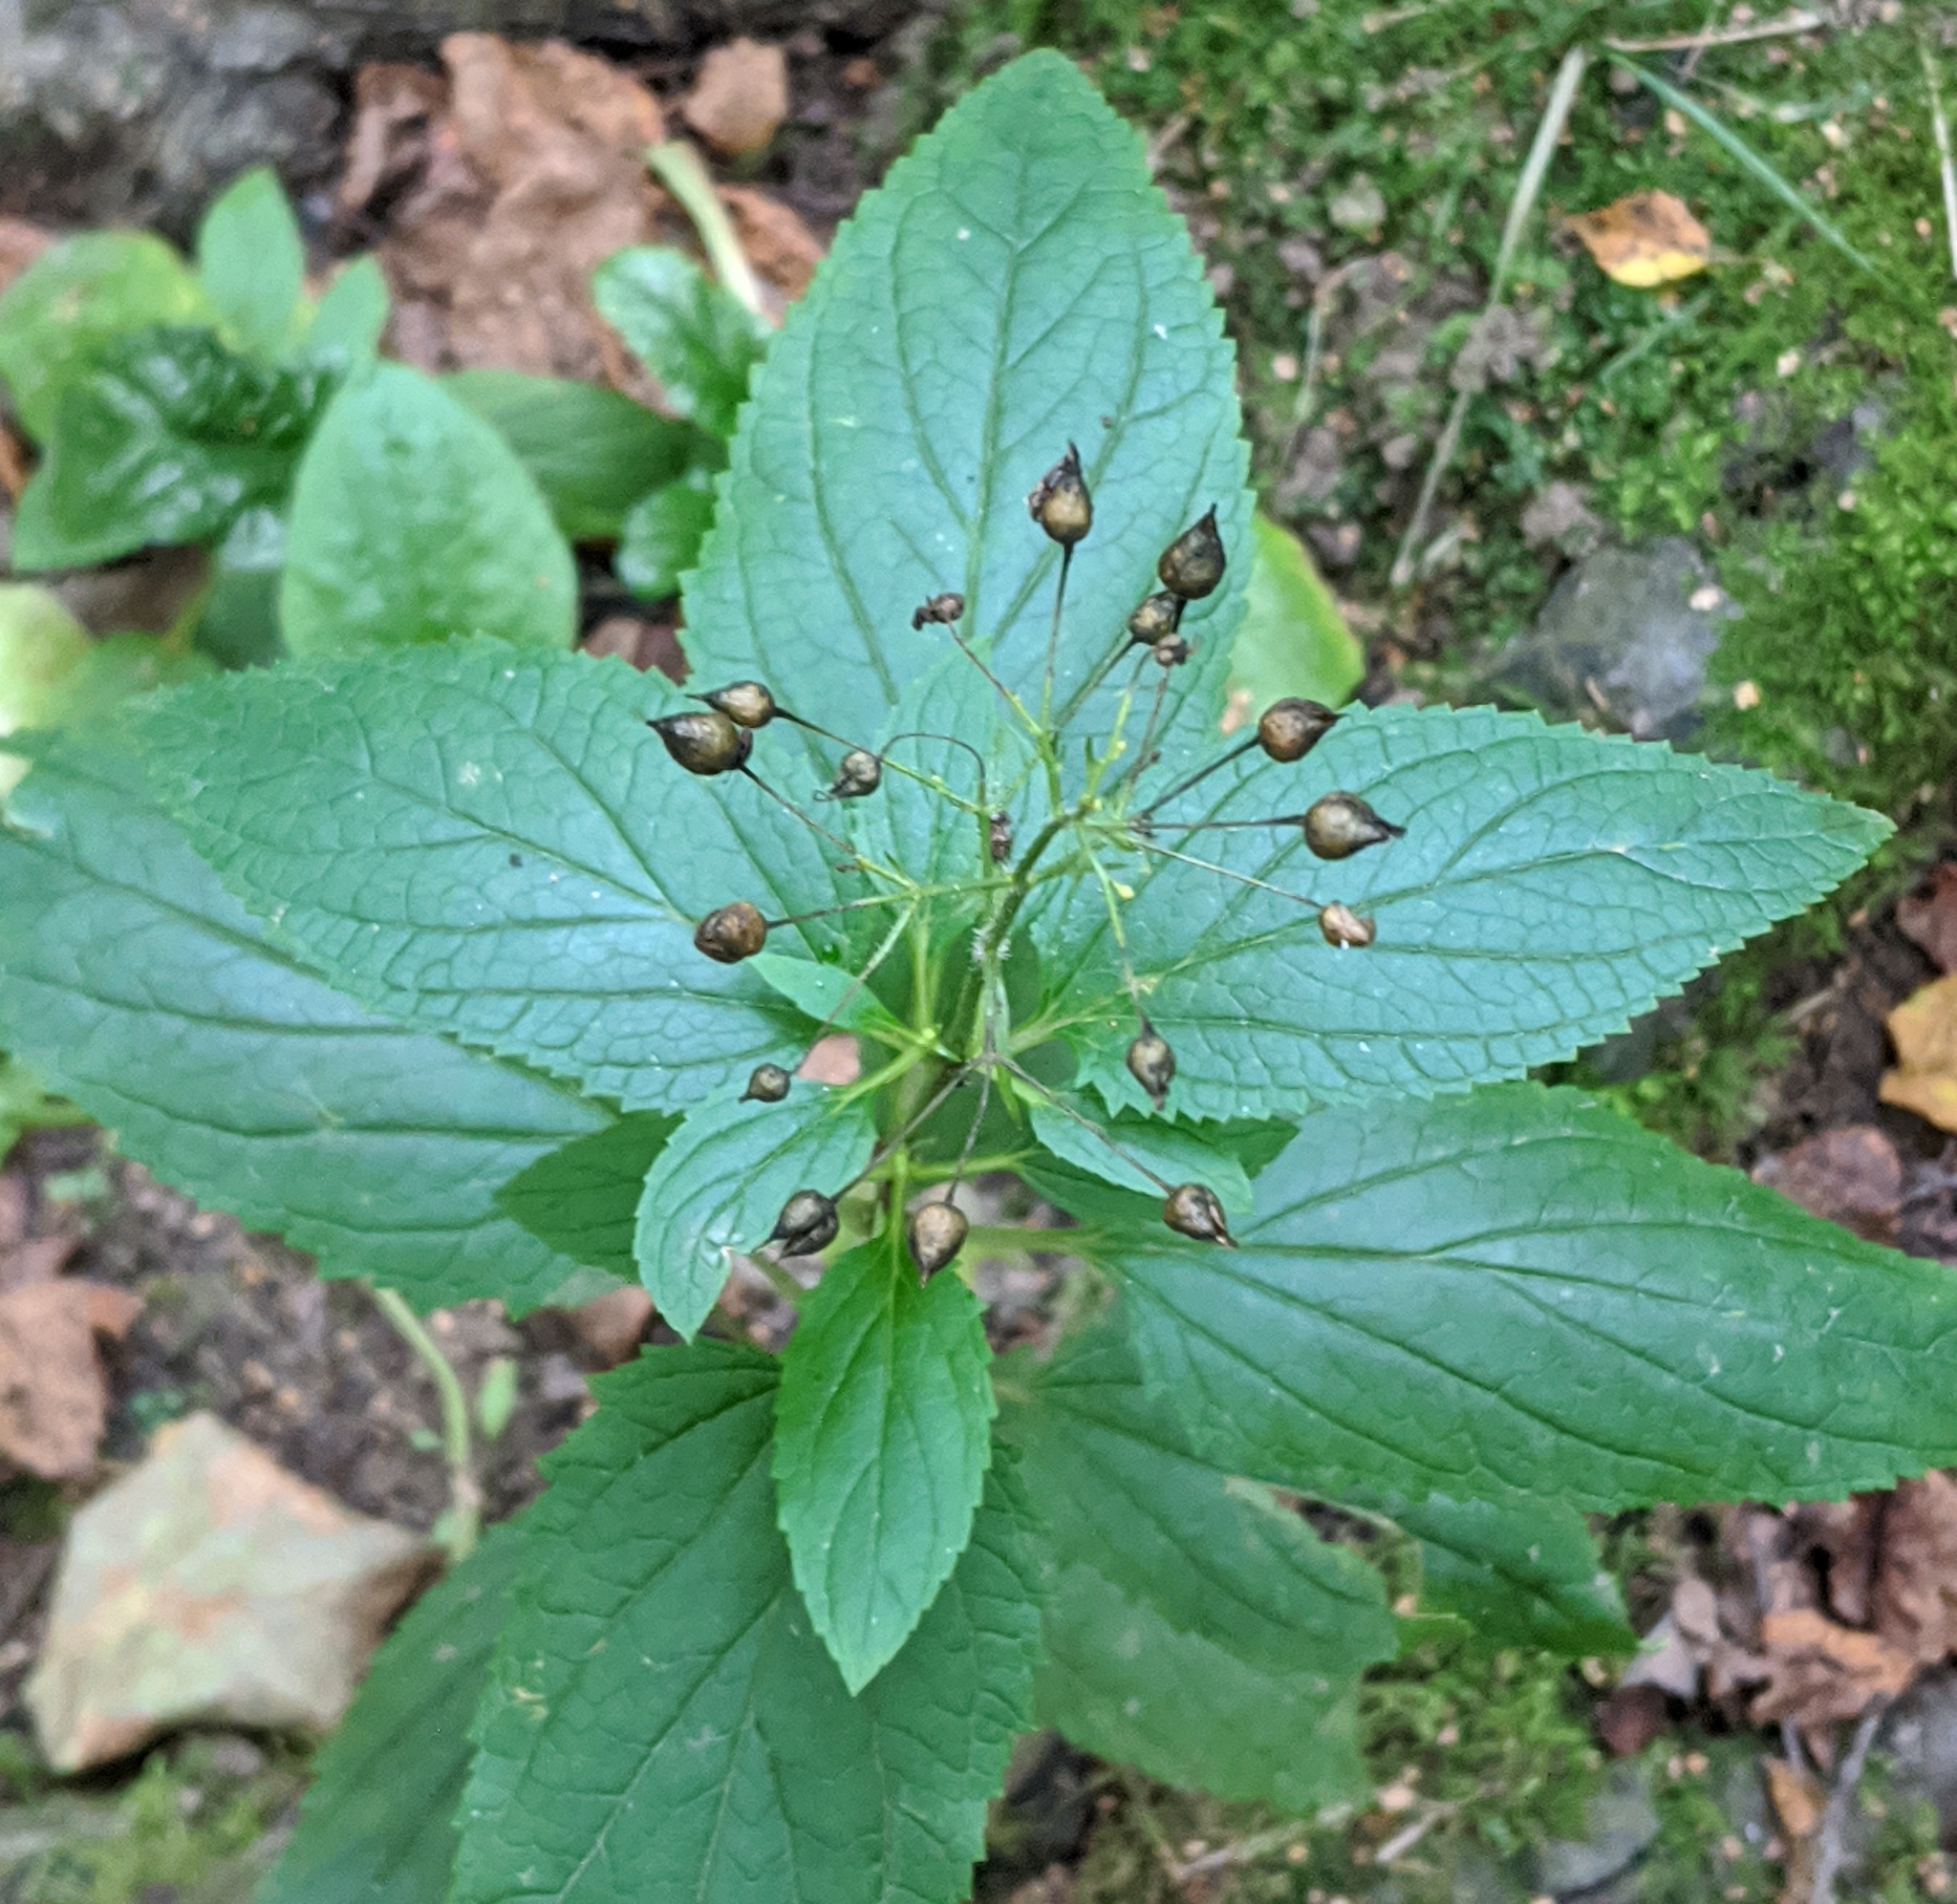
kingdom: Plantae
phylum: Tracheophyta
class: Magnoliopsida
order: Lamiales
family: Scrophulariaceae
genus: Scrophularia
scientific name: Scrophularia nodosa
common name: Common figwort
